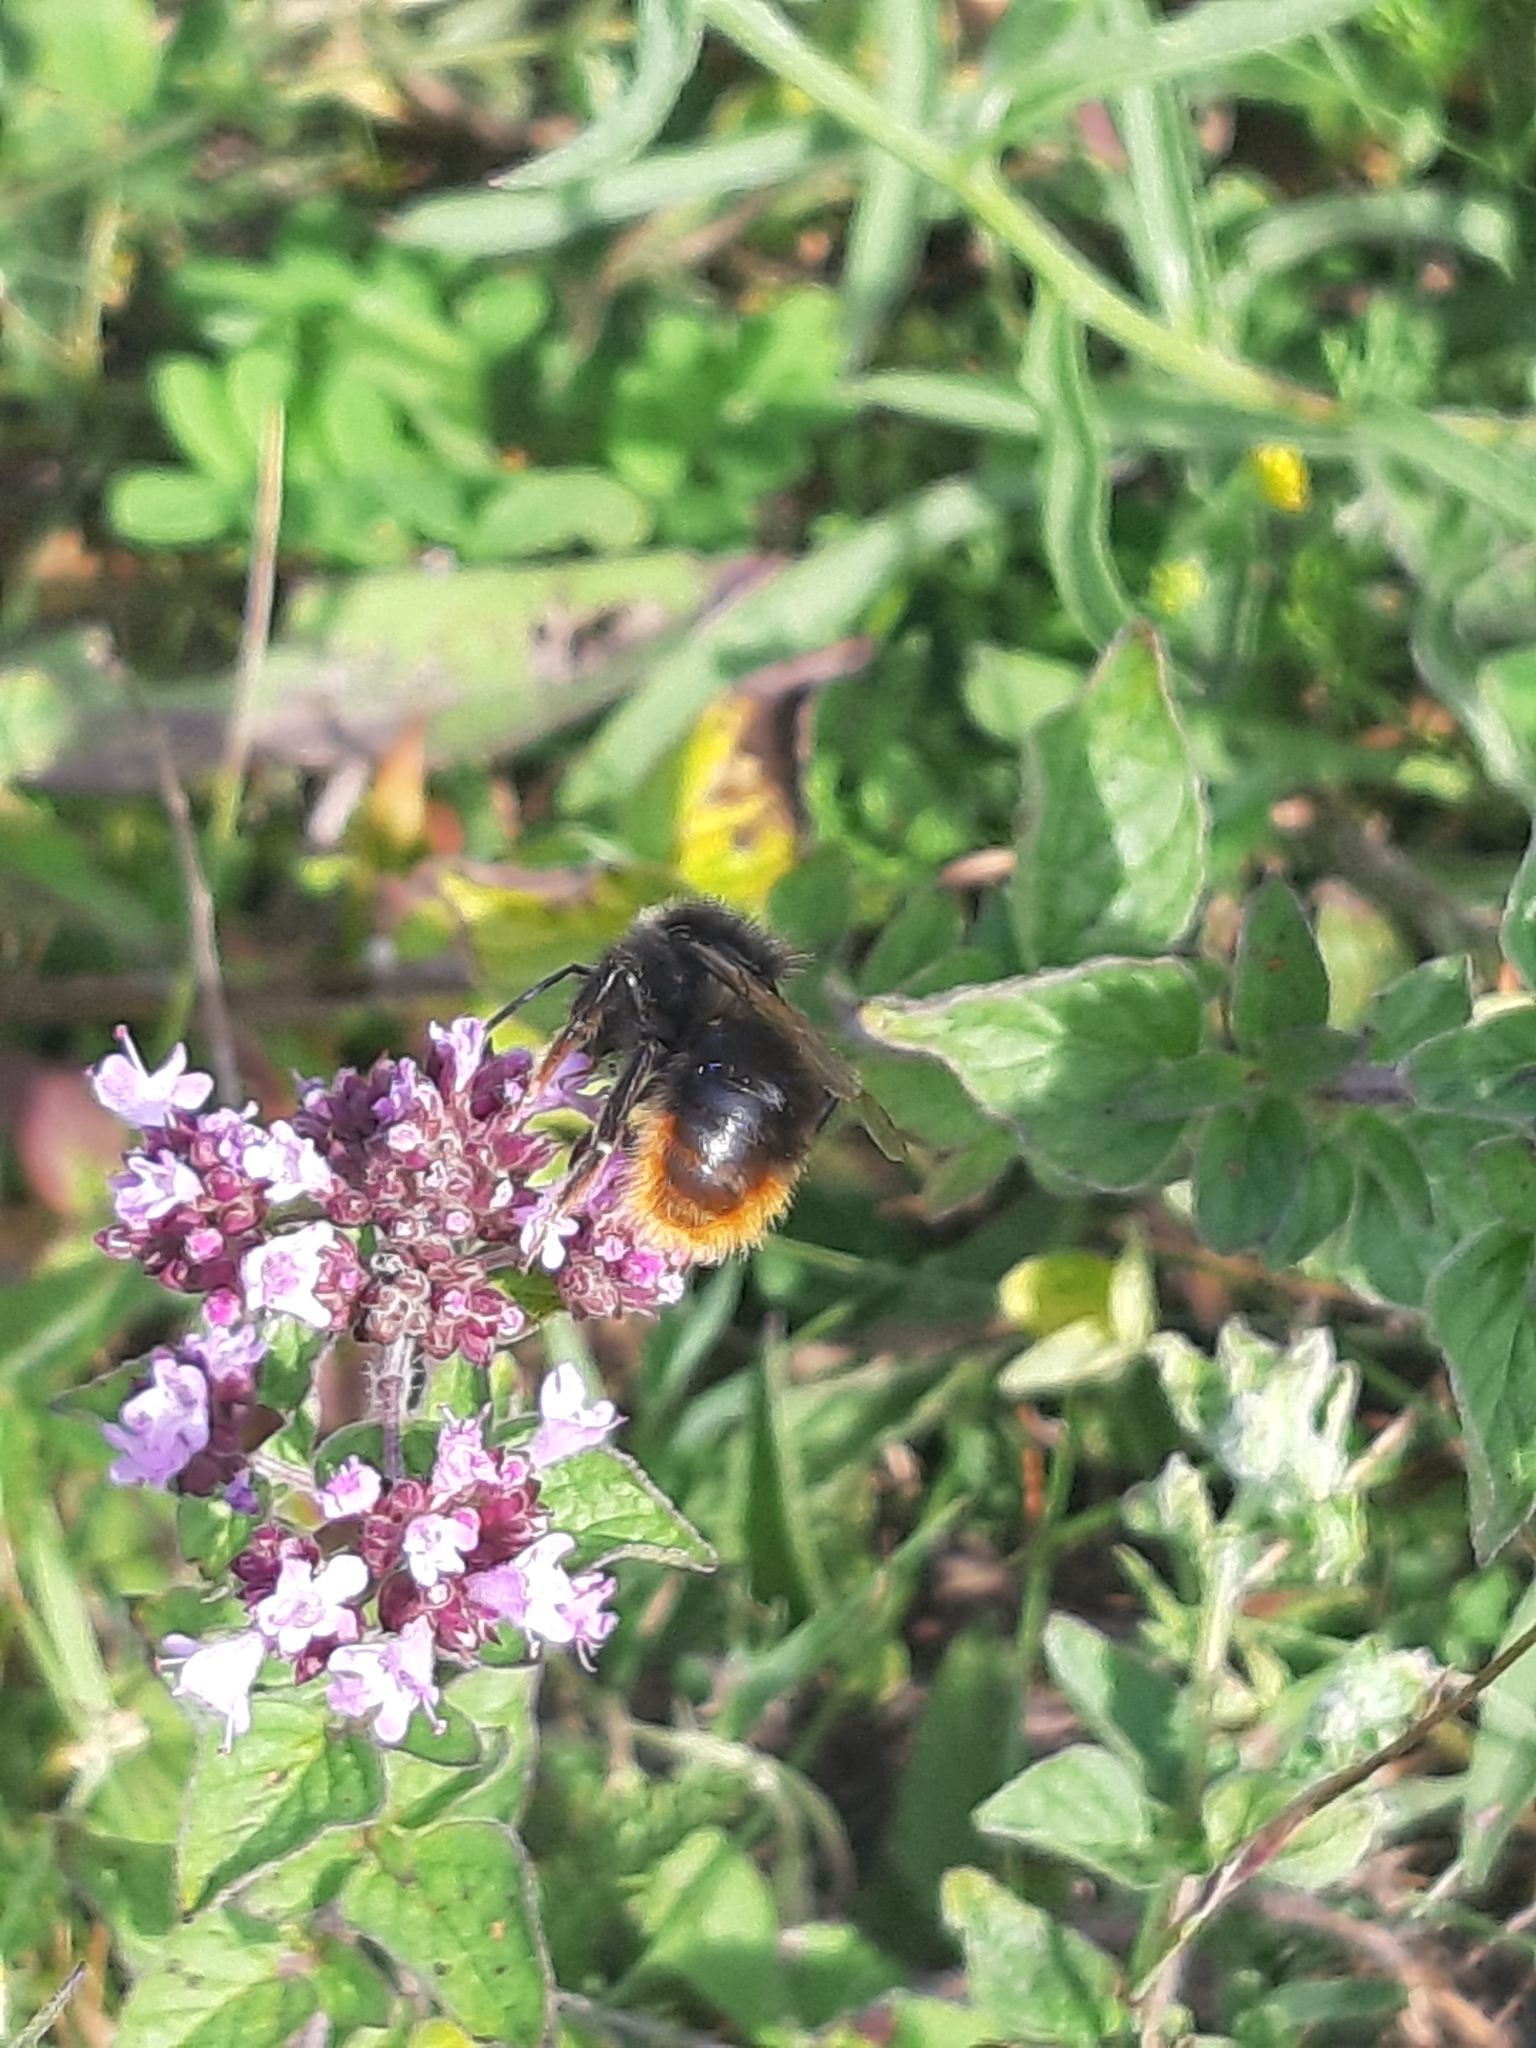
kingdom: Animalia
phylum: Arthropoda
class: Insecta
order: Hymenoptera
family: Apidae
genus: Bombus
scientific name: Bombus rupestris
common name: Hill cuckoo-bee
